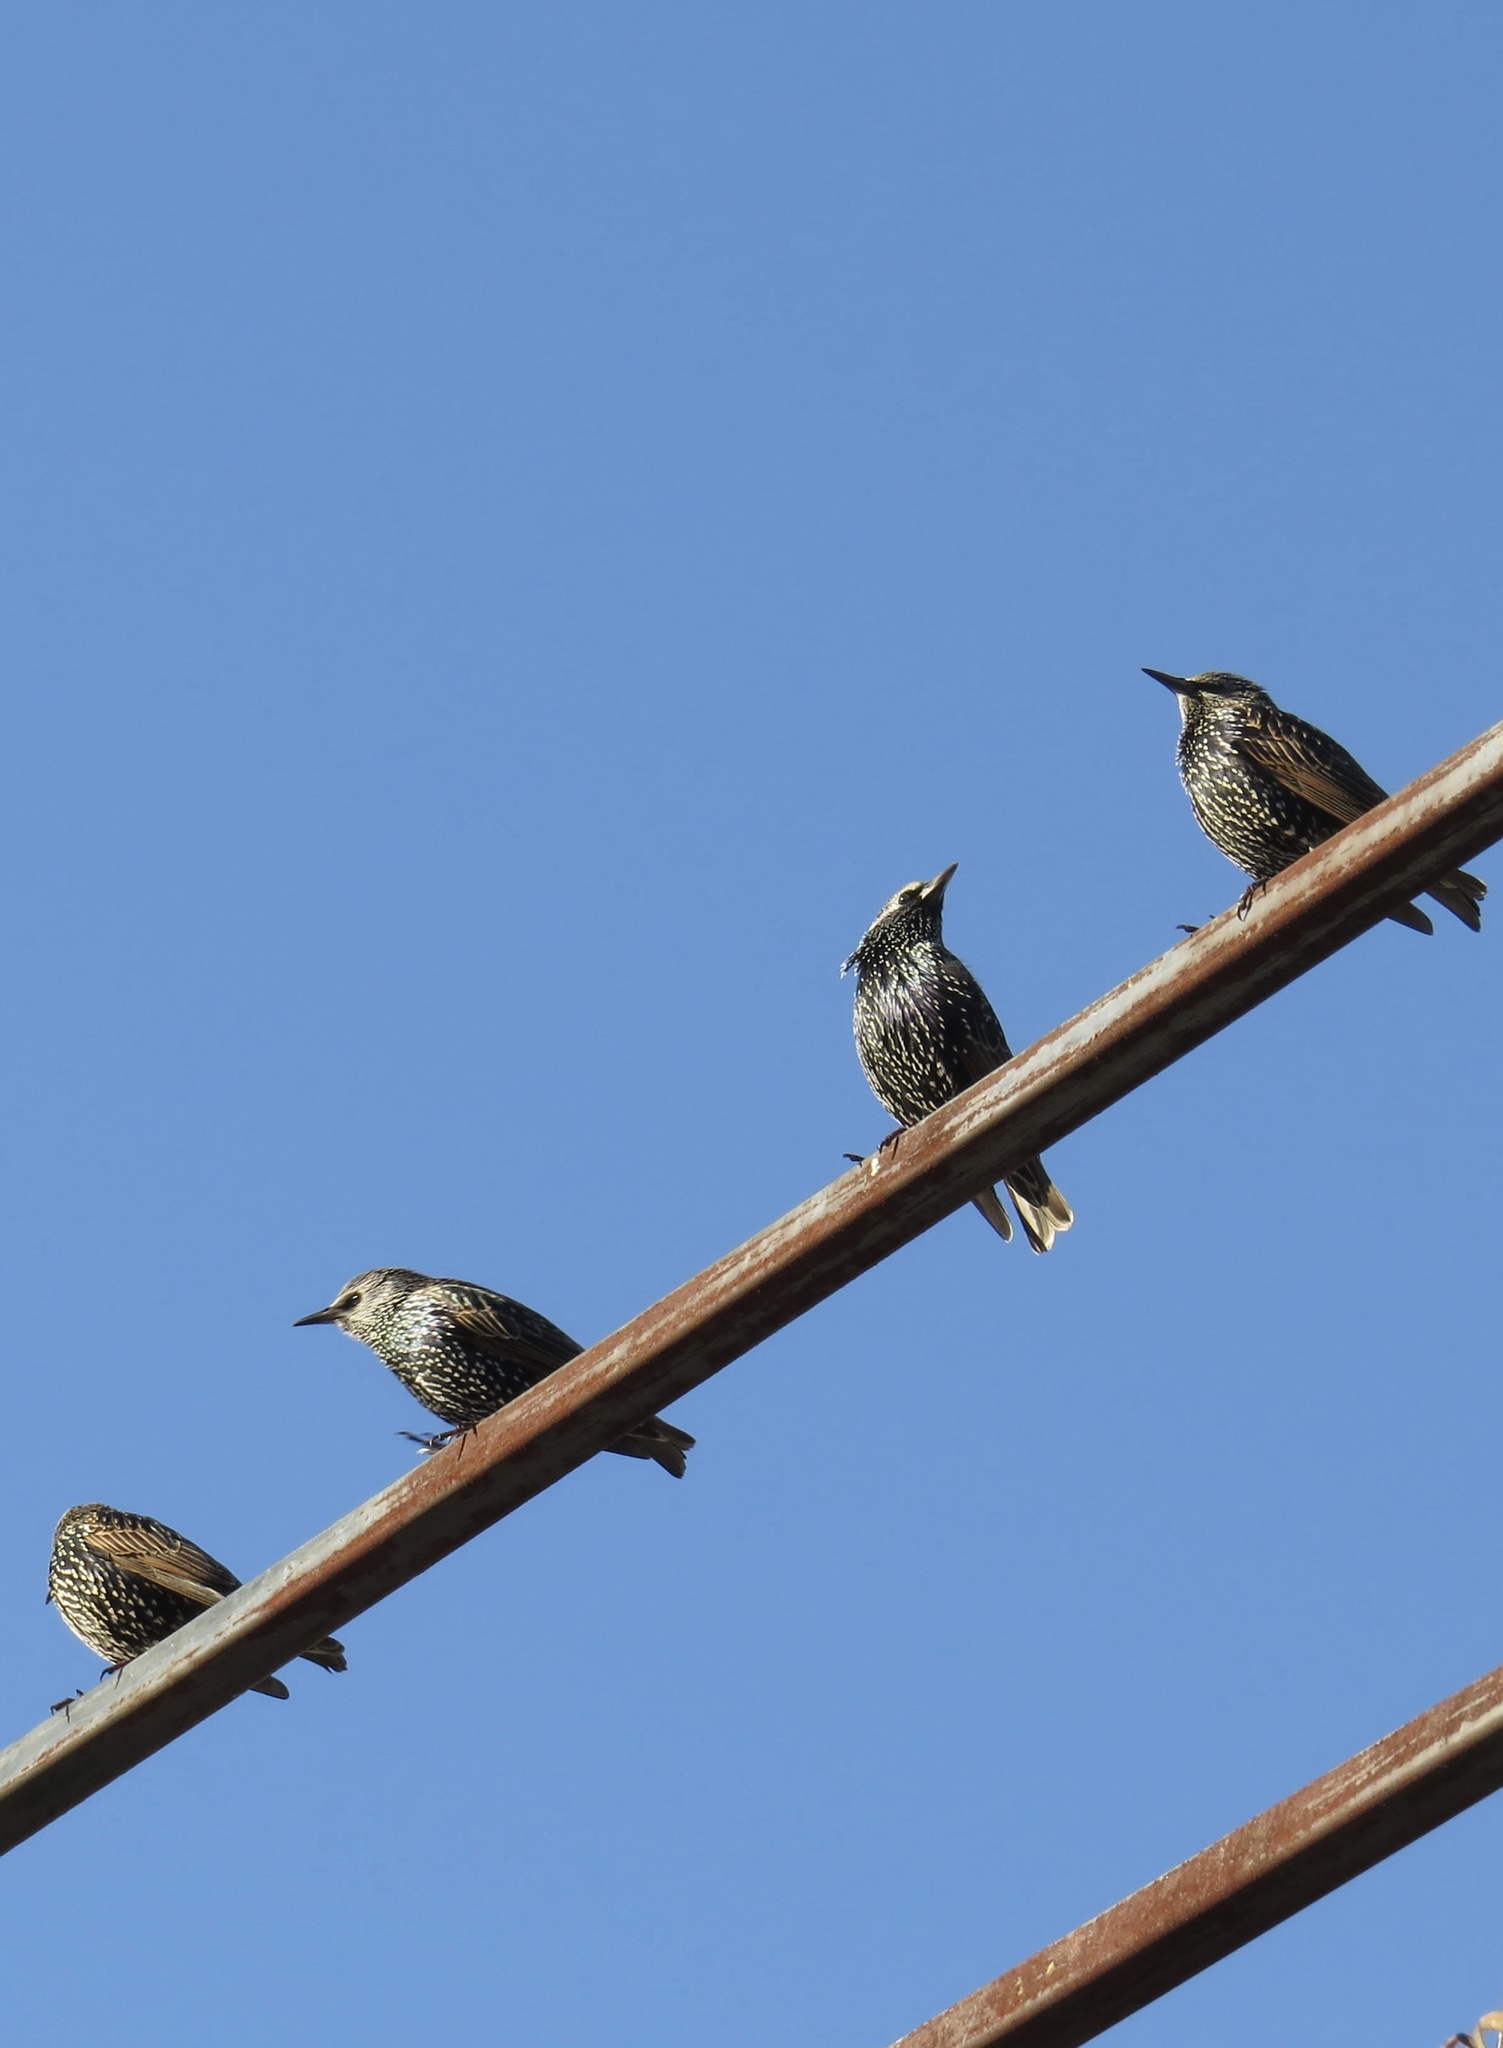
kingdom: Animalia
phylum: Chordata
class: Aves
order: Passeriformes
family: Sturnidae
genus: Sturnus
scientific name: Sturnus vulgaris
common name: Common starling
